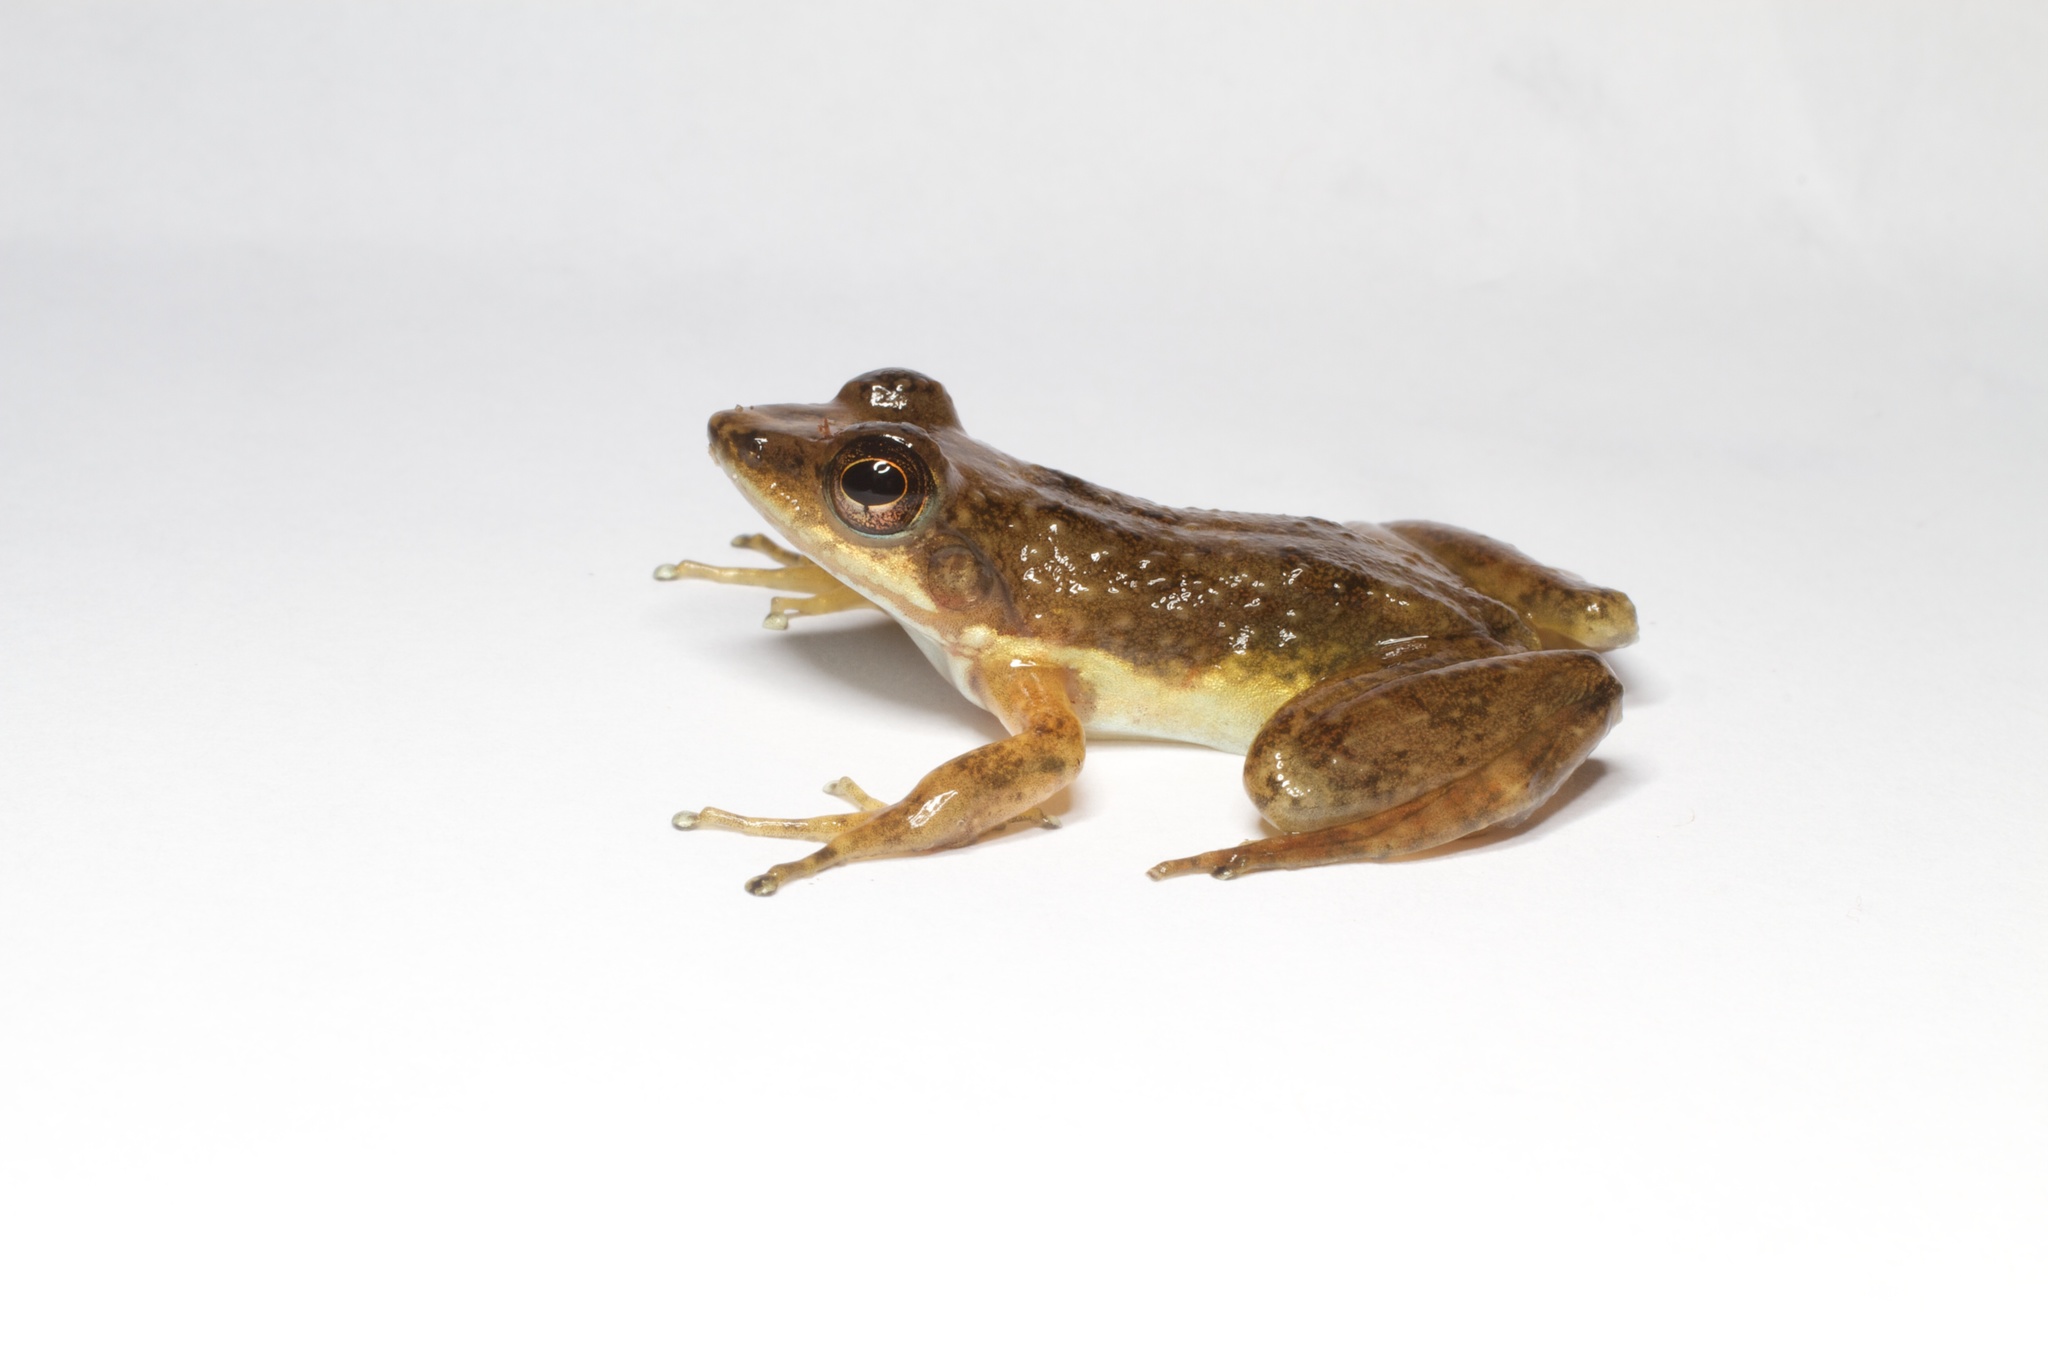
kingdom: Animalia
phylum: Chordata
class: Amphibia
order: Anura
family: Mantellidae
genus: Mantidactylus
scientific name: Mantidactylus majori
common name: Ivohimanita madagascar frog
